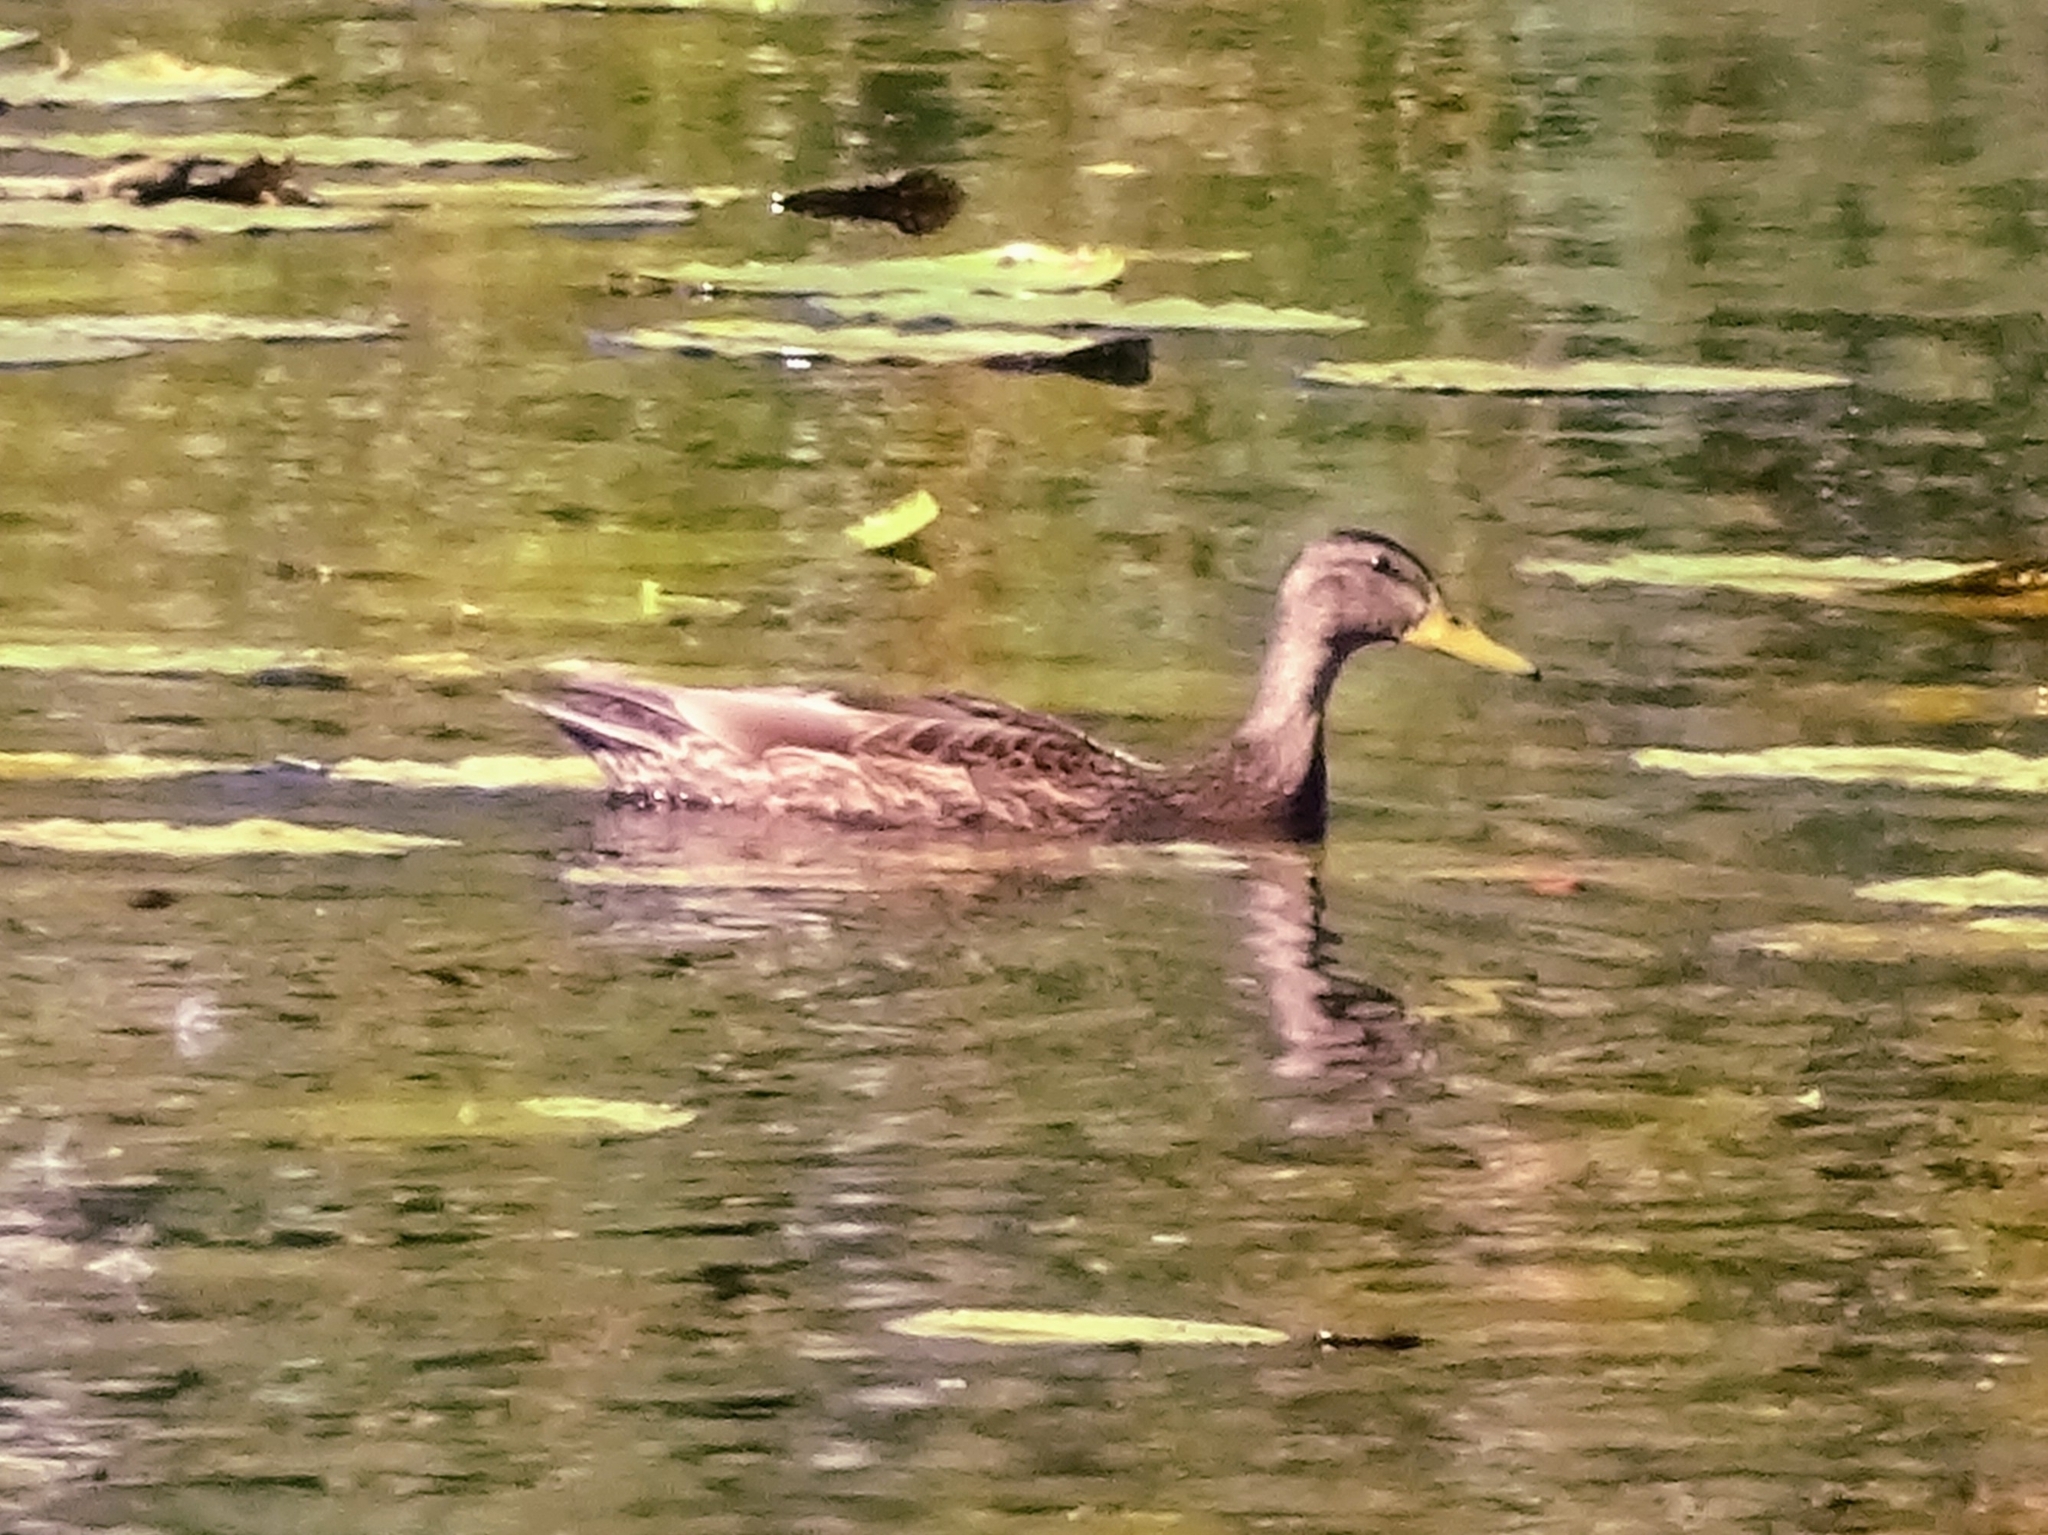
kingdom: Animalia
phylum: Chordata
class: Aves
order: Anseriformes
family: Anatidae
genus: Anas
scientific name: Anas platyrhynchos
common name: Mallard
